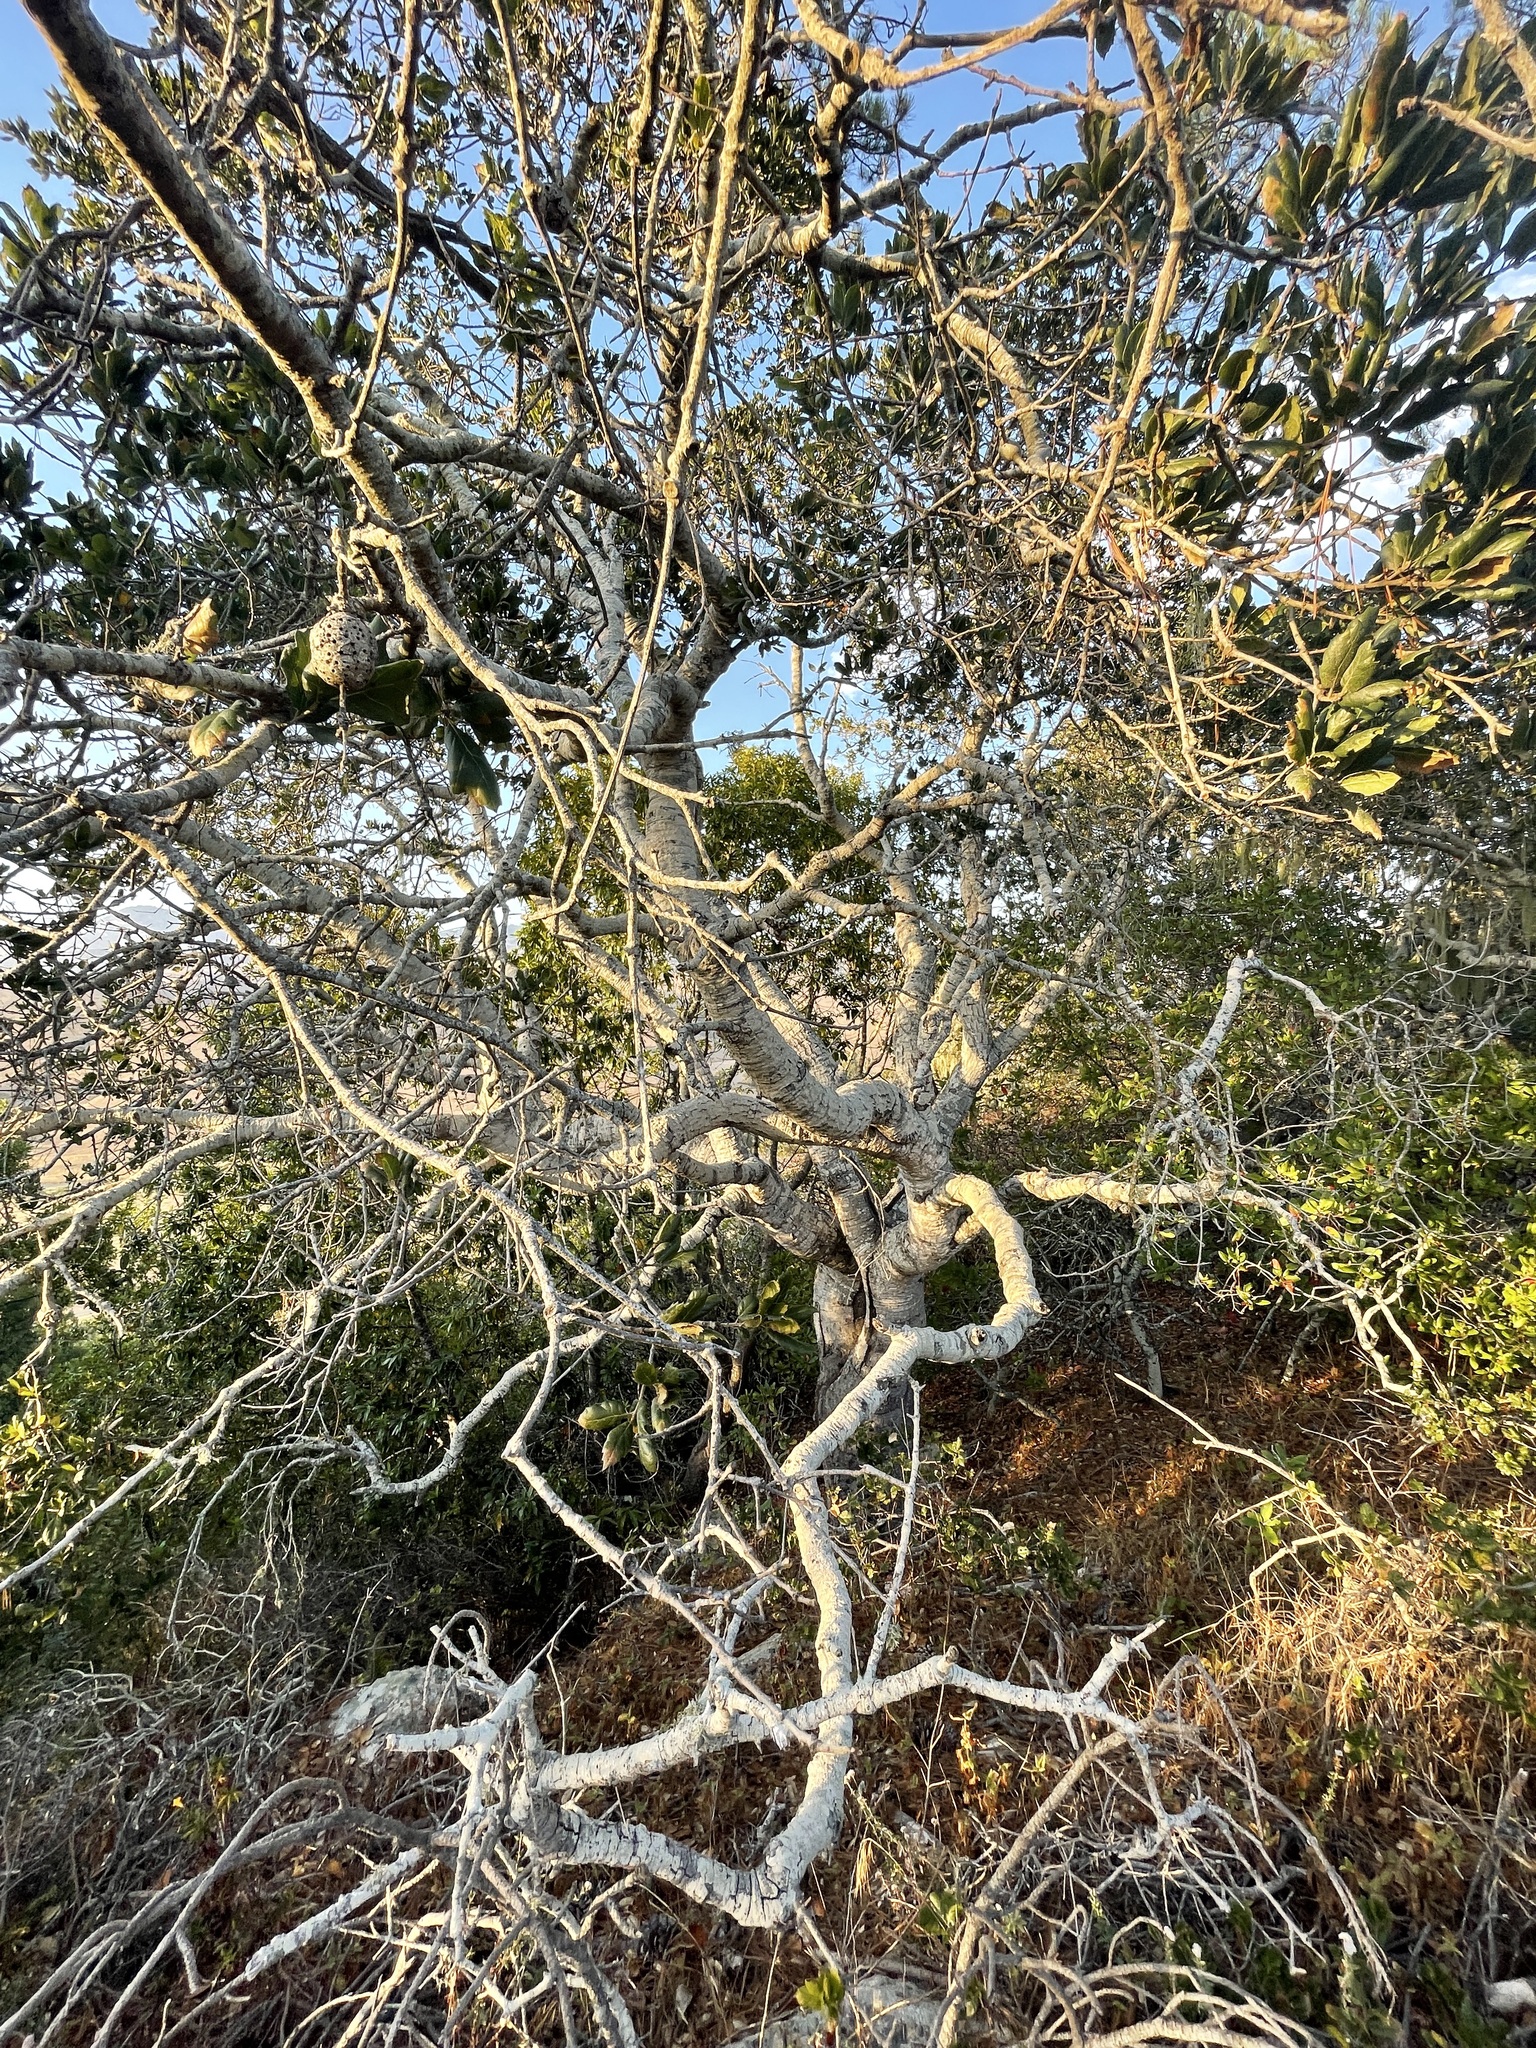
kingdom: Plantae
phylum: Tracheophyta
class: Magnoliopsida
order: Fagales
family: Fagaceae
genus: Quercus
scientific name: Quercus agrifolia
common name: California live oak
